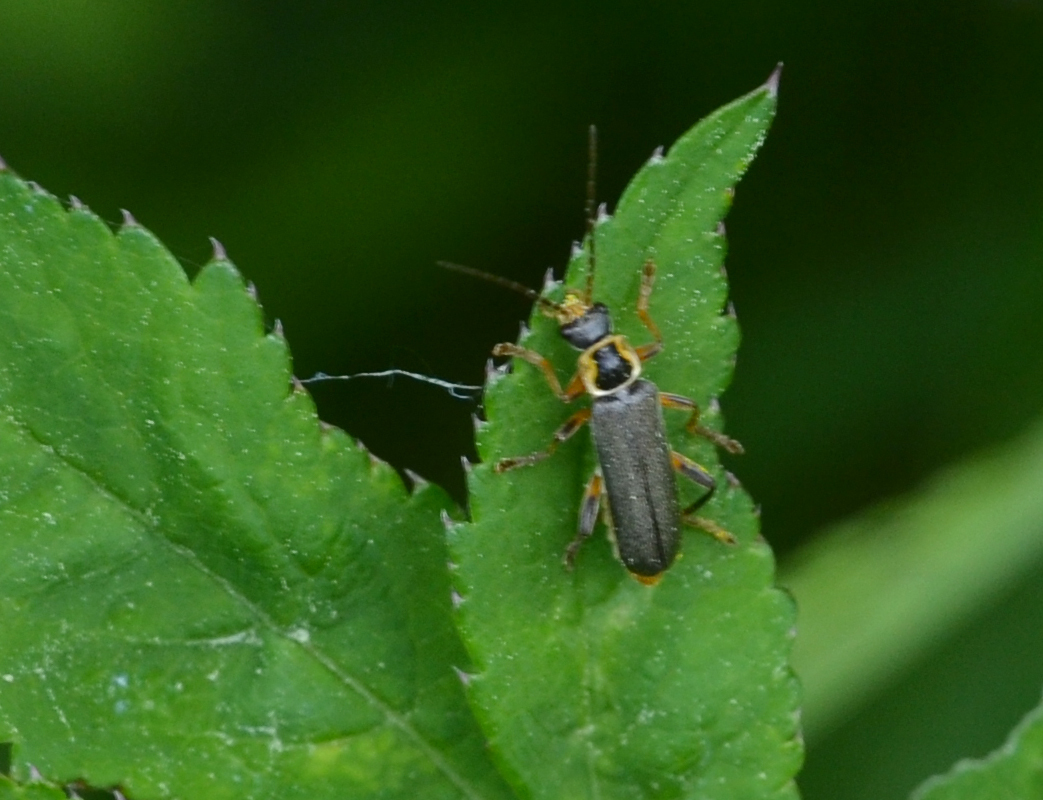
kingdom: Animalia
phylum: Arthropoda
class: Insecta
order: Coleoptera
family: Cantharidae
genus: Cantharis
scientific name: Cantharis nigricans
